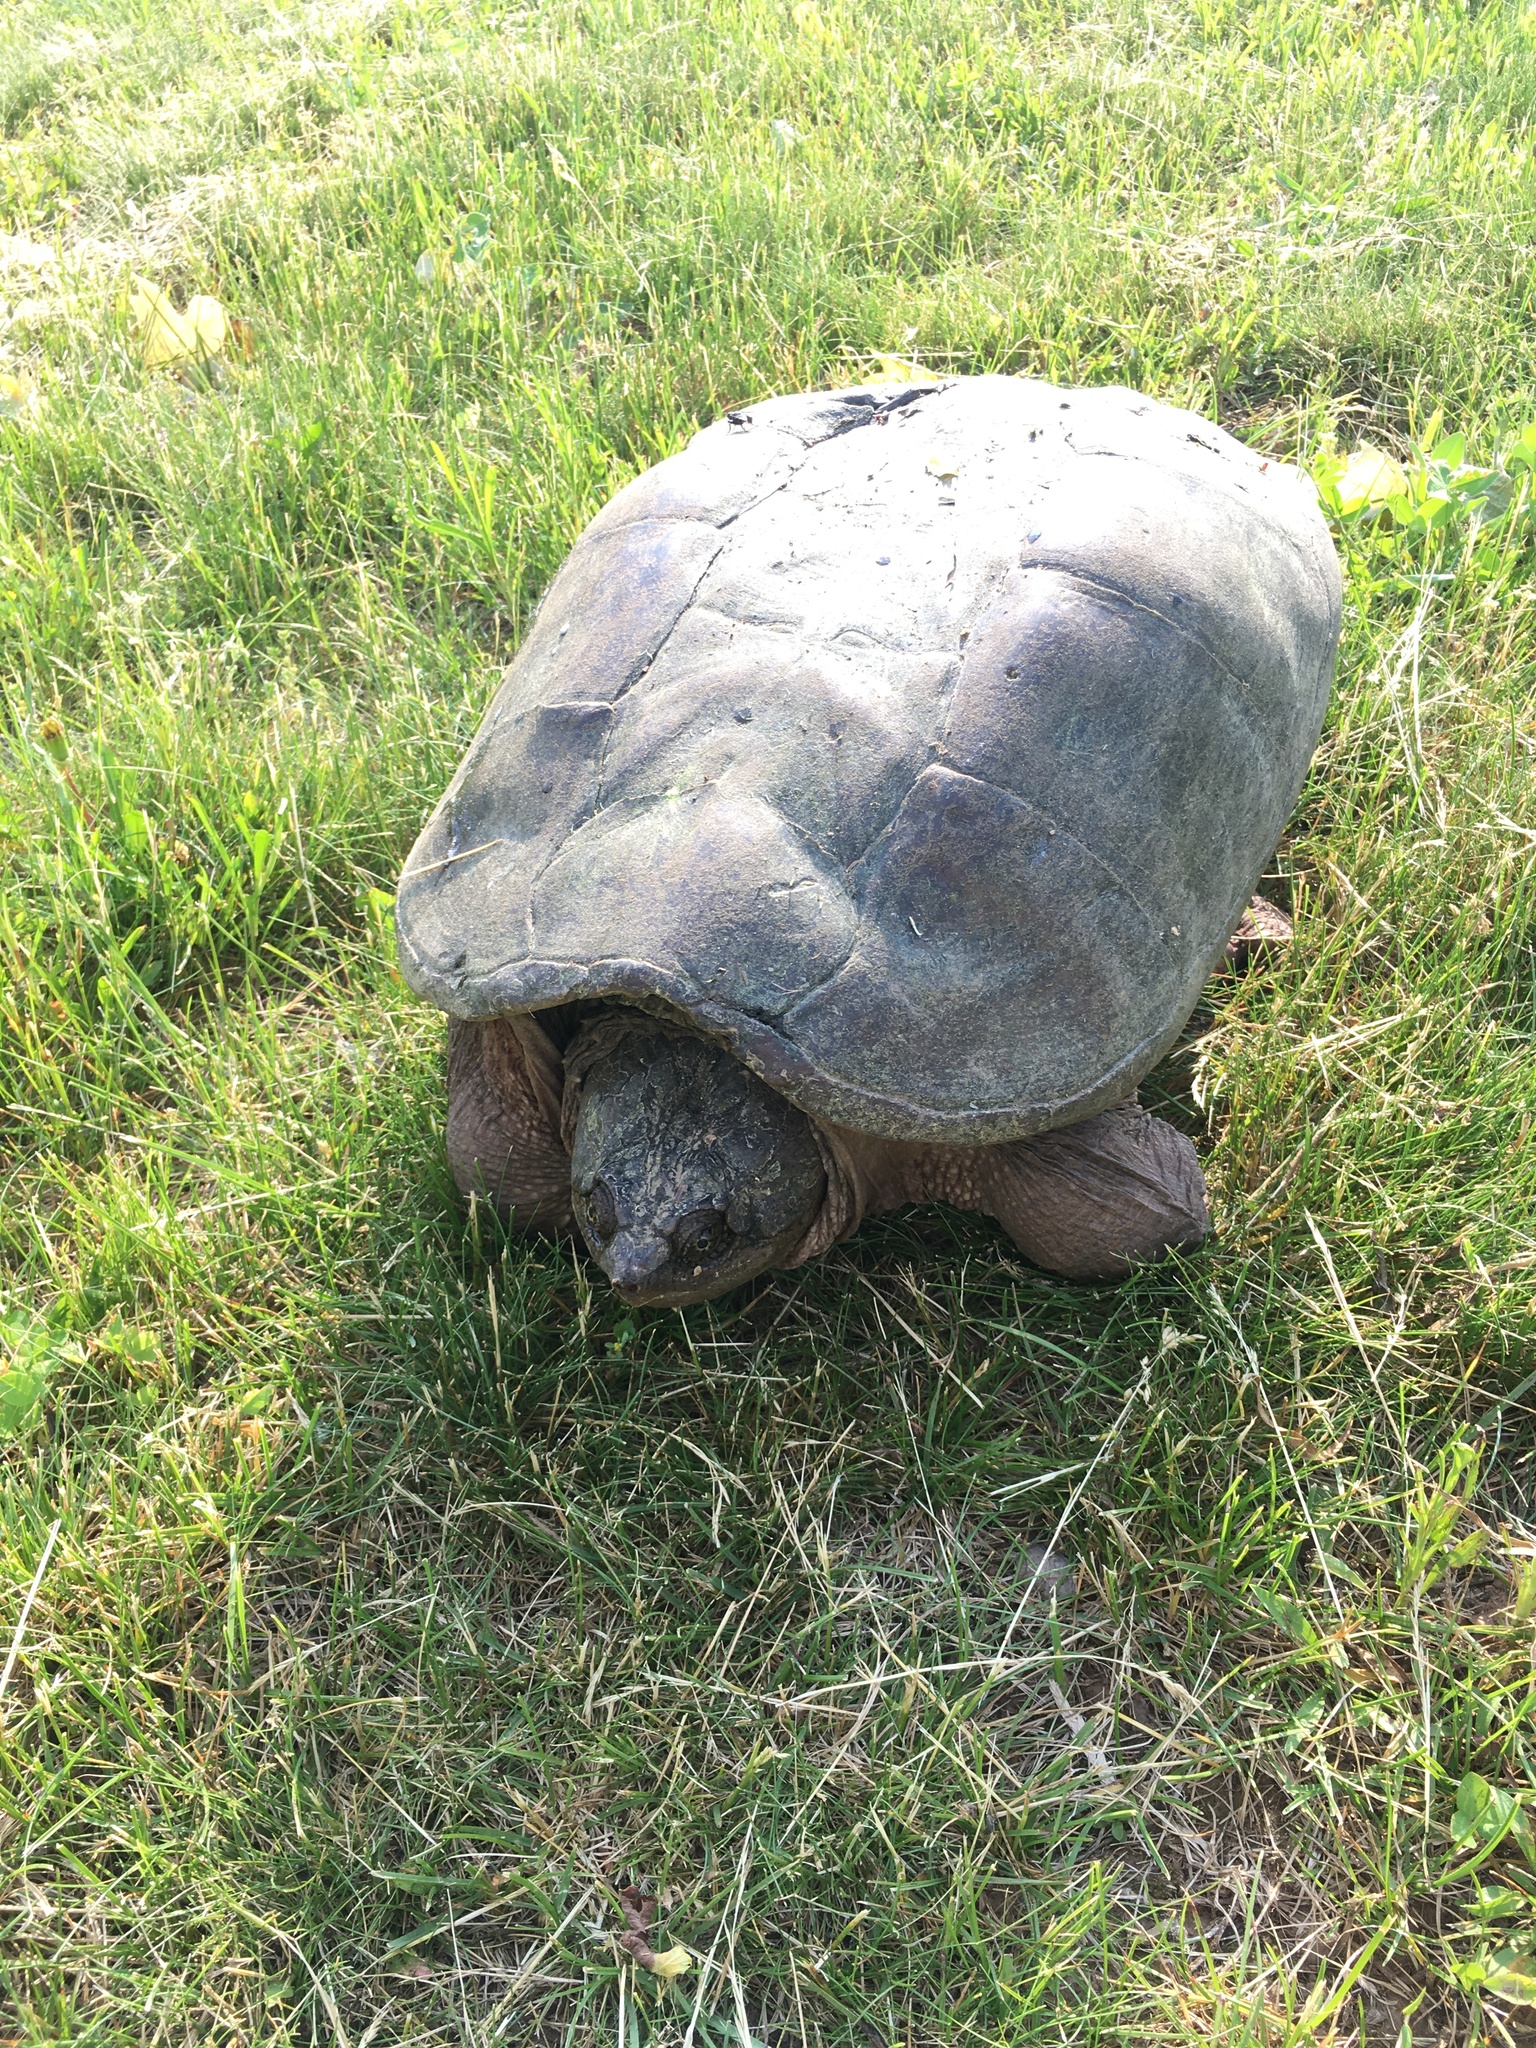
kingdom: Animalia
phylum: Chordata
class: Testudines
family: Chelydridae
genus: Chelydra
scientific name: Chelydra serpentina
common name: Common snapping turtle
